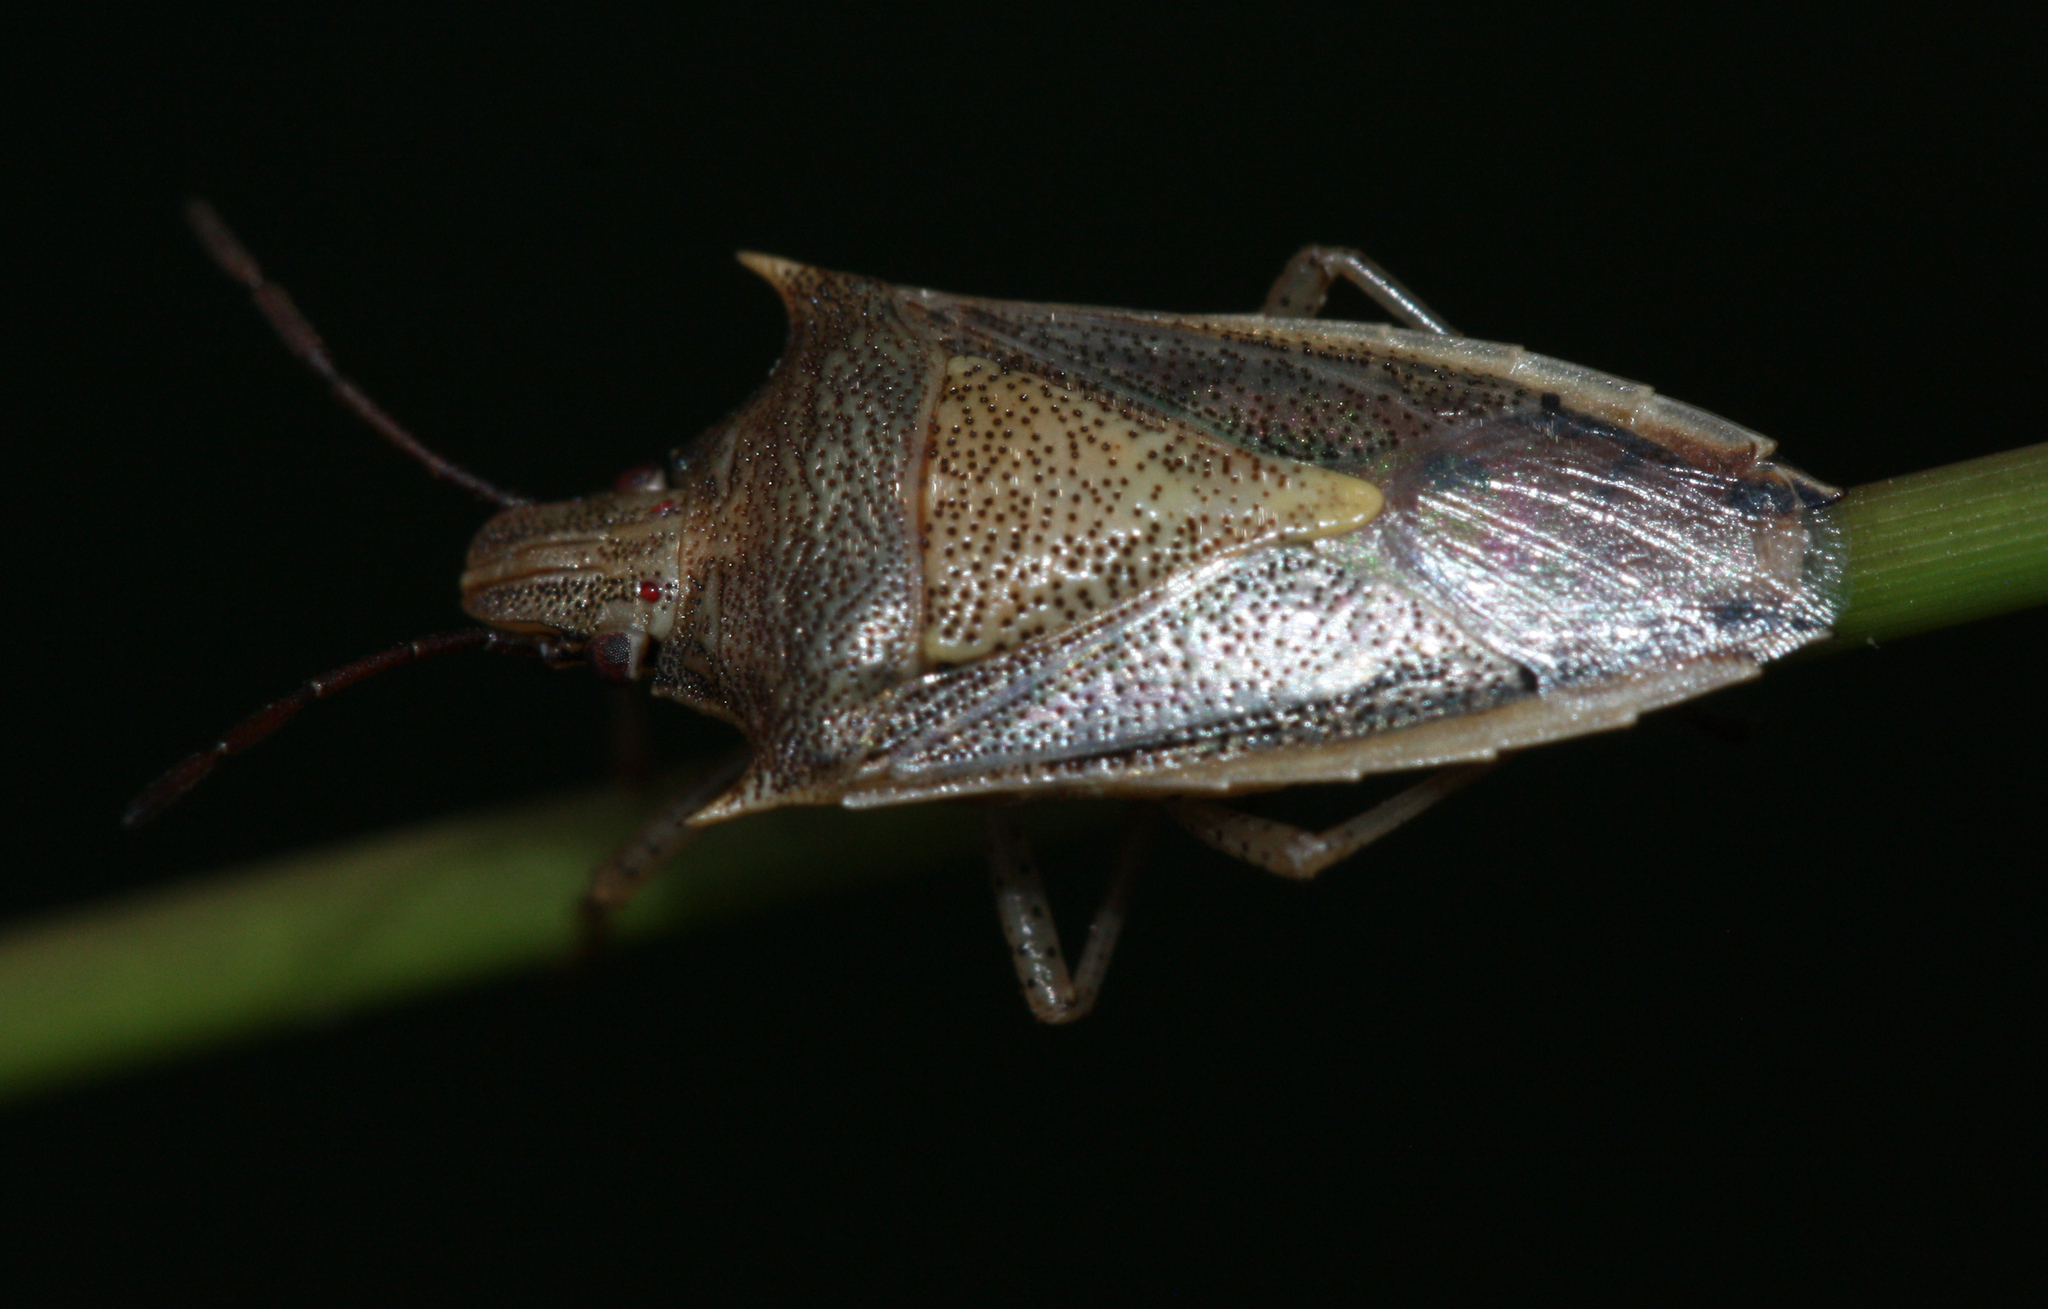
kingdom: Animalia
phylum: Arthropoda
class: Insecta
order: Hemiptera
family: Pentatomidae
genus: Oebalus
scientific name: Oebalus pugnax
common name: Rice stink bug
